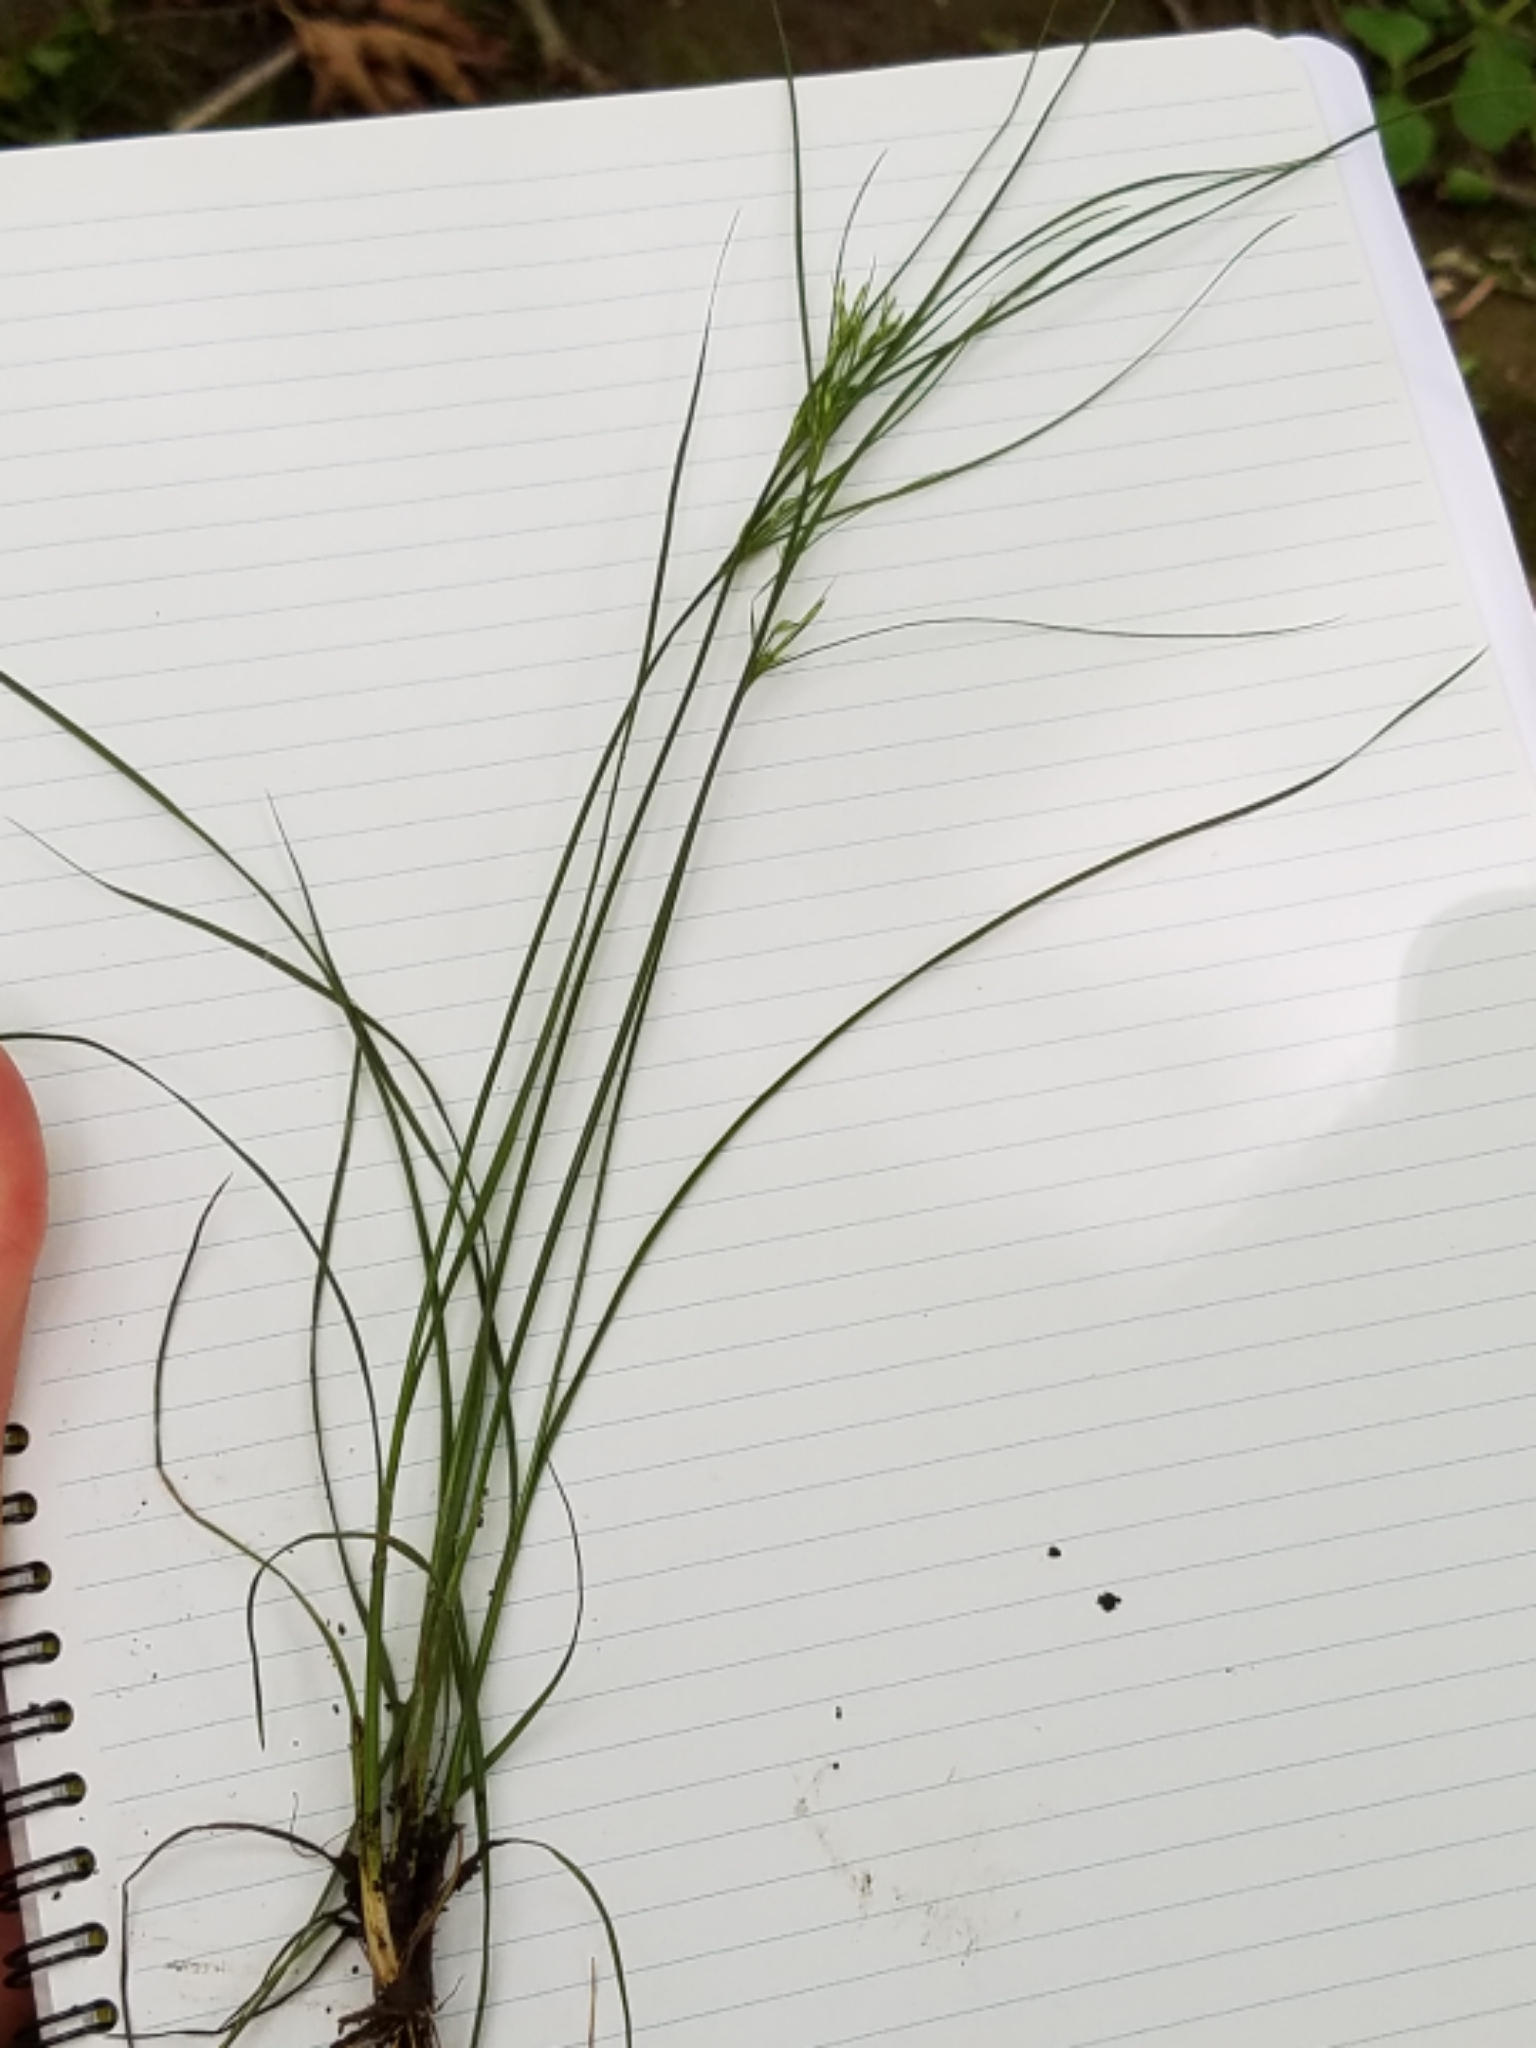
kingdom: Plantae
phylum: Tracheophyta
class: Liliopsida
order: Poales
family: Juncaceae
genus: Juncus
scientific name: Juncus tenuis
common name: Slender rush
